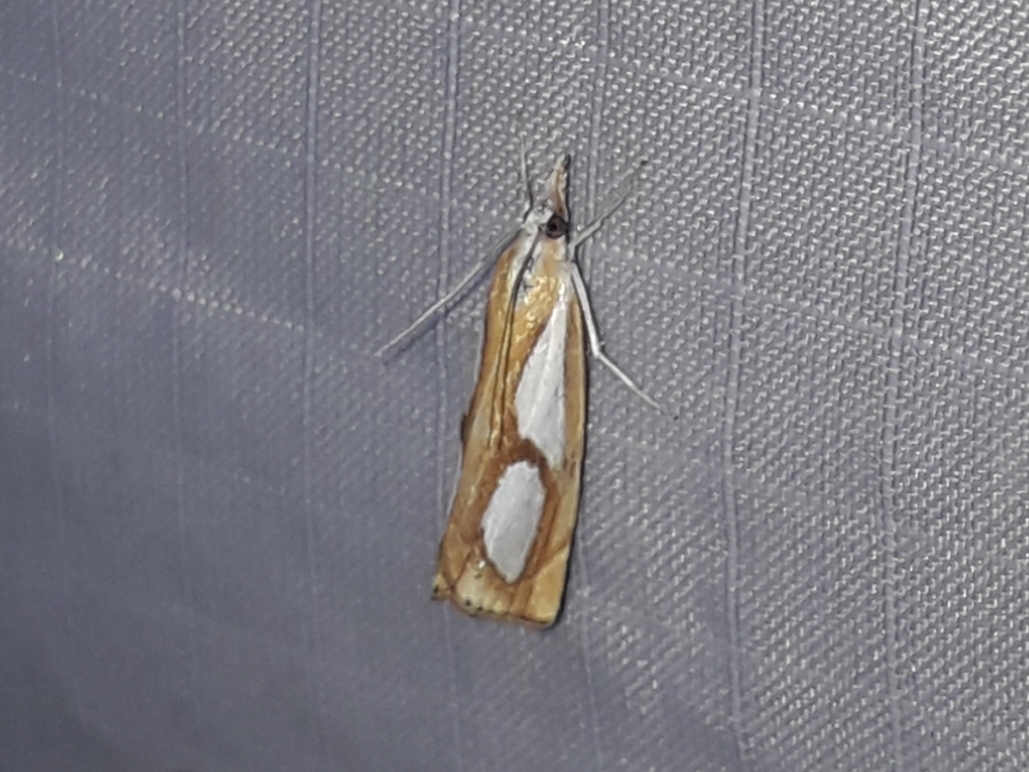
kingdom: Animalia
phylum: Arthropoda
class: Insecta
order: Lepidoptera
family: Crambidae
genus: Catoptria
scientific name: Catoptria pinella
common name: Pearl grass-veneer
